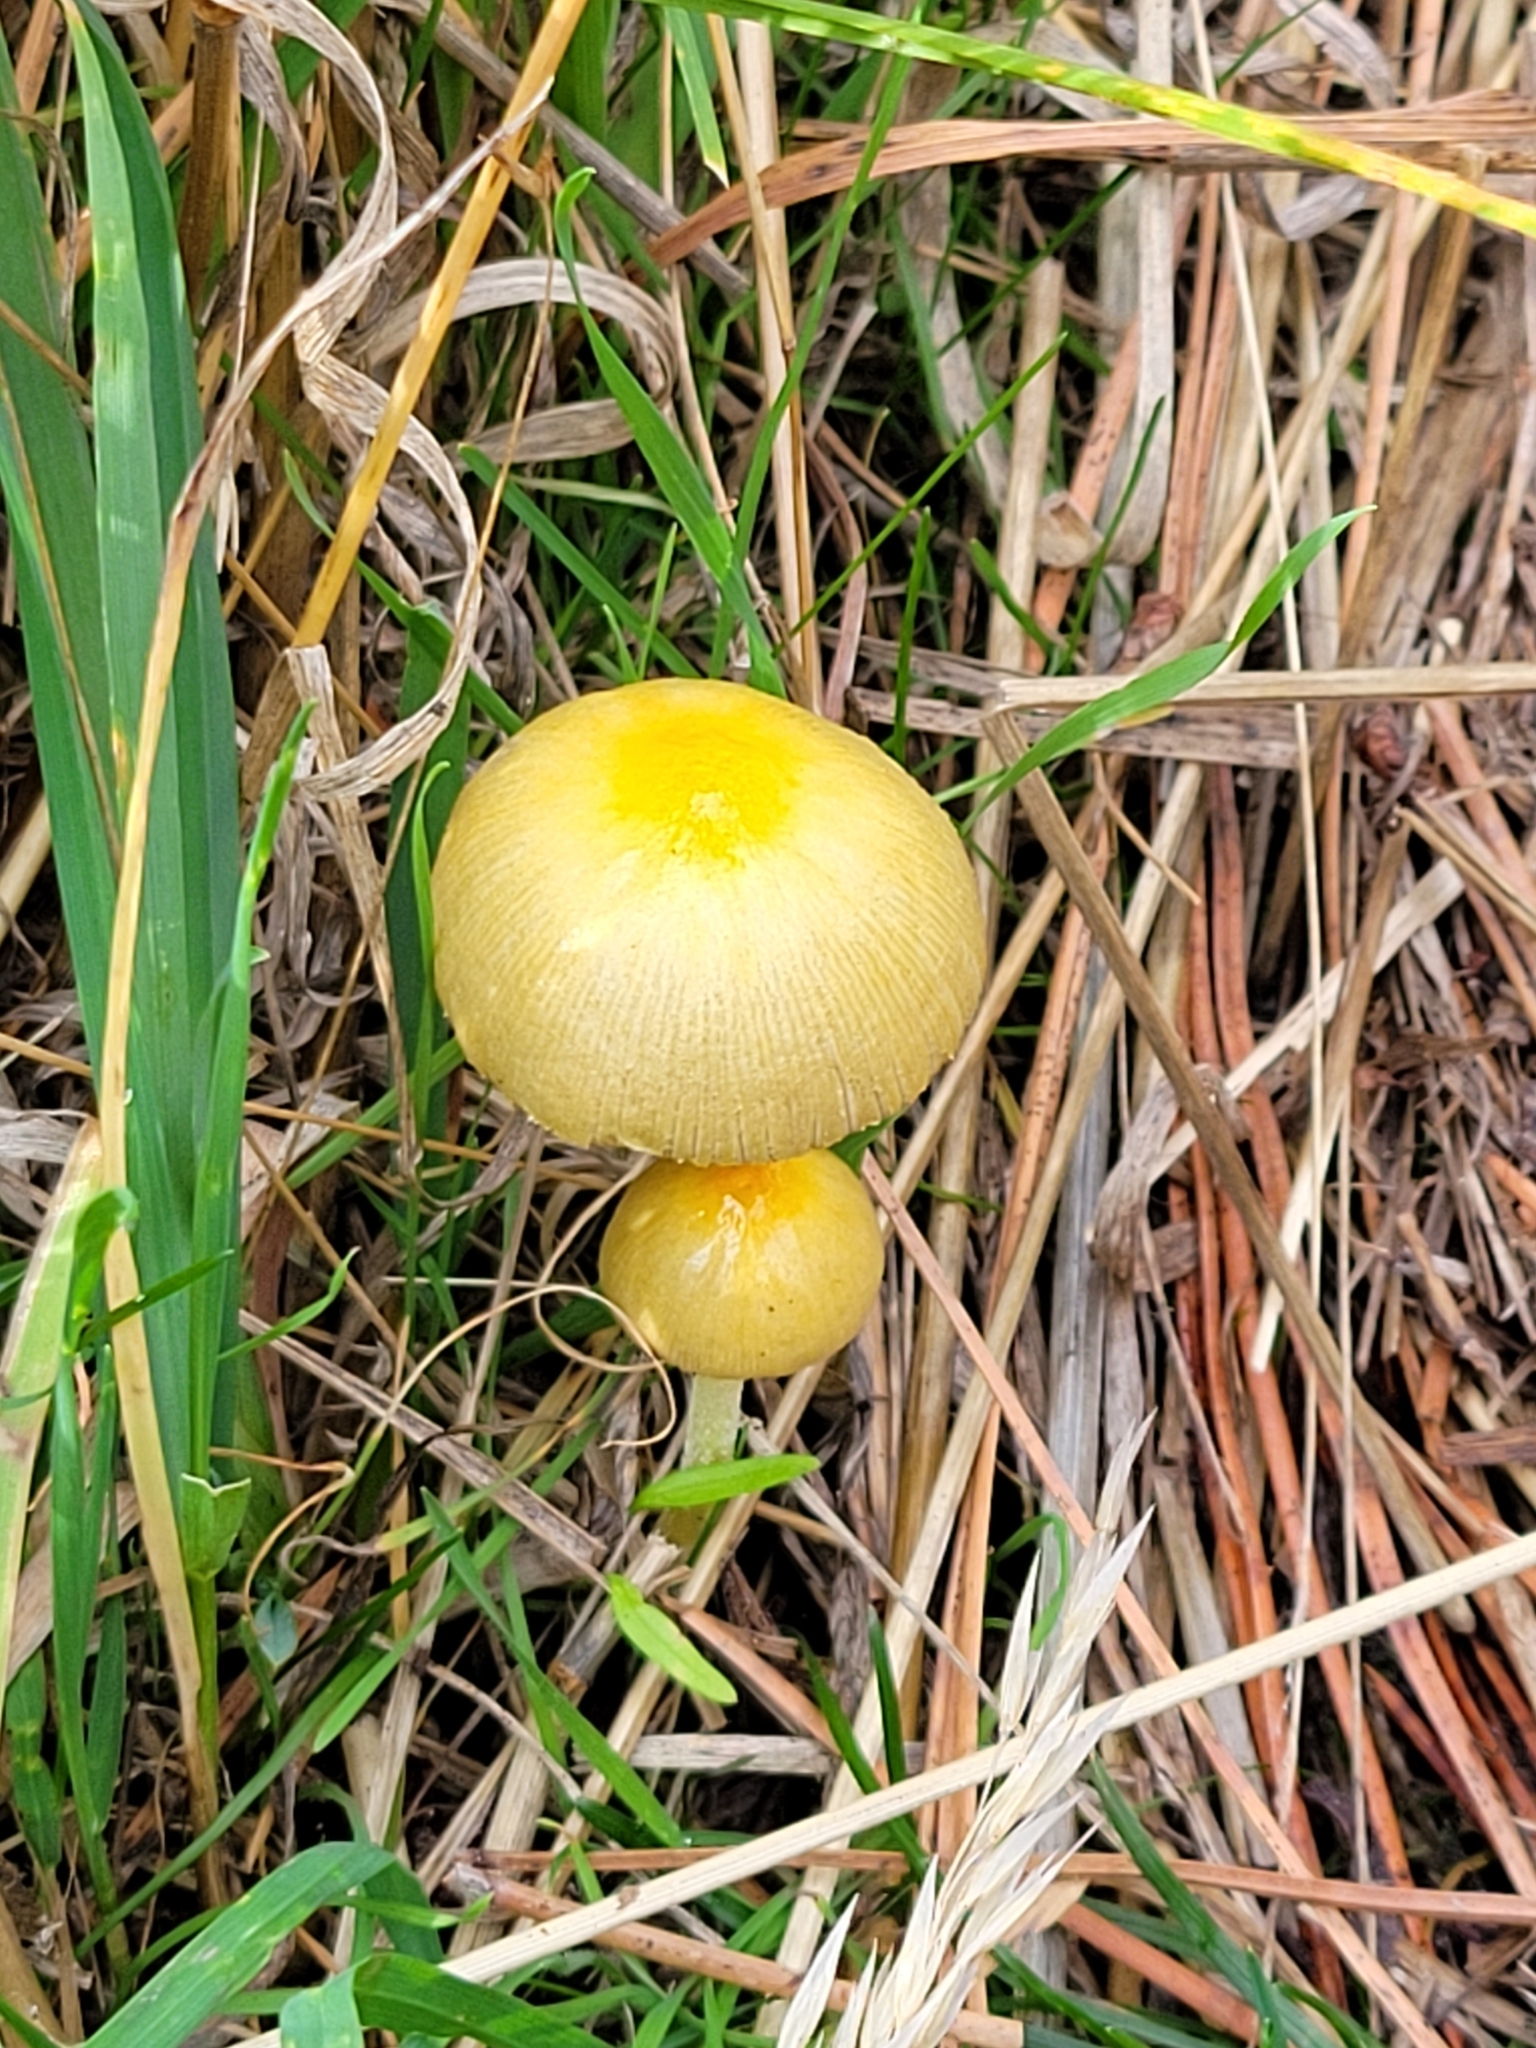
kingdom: Fungi
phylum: Basidiomycota
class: Agaricomycetes
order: Agaricales
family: Bolbitiaceae
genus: Bolbitius
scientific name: Bolbitius titubans
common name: Yellow fieldcap
